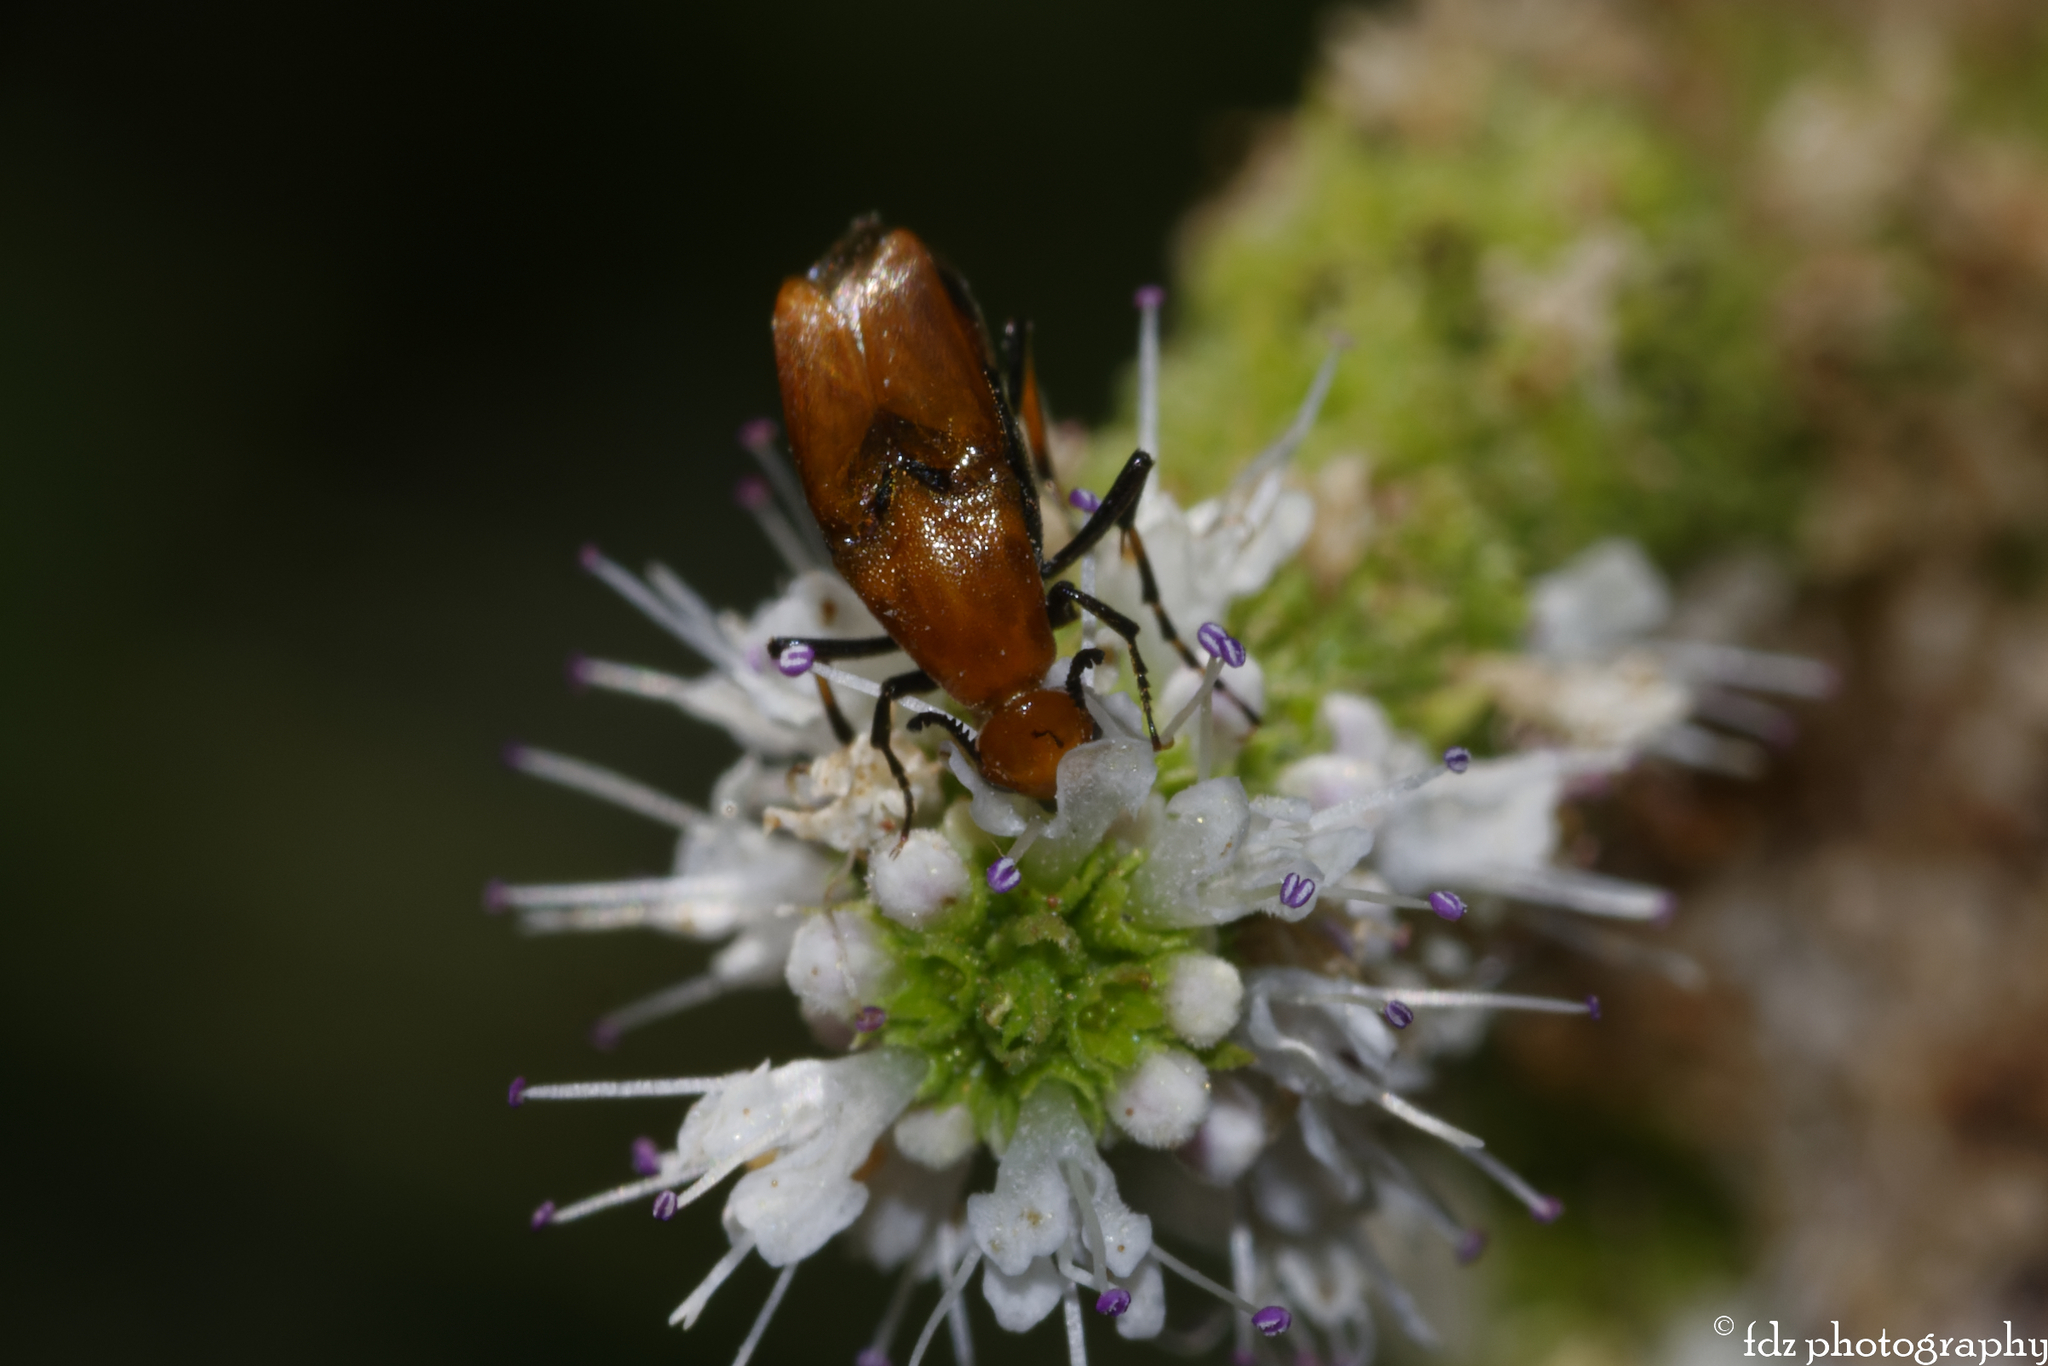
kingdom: Animalia
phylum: Arthropoda
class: Insecta
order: Coleoptera
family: Ripiphoridae
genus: Macrosiagon
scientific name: Macrosiagon ferruginea
